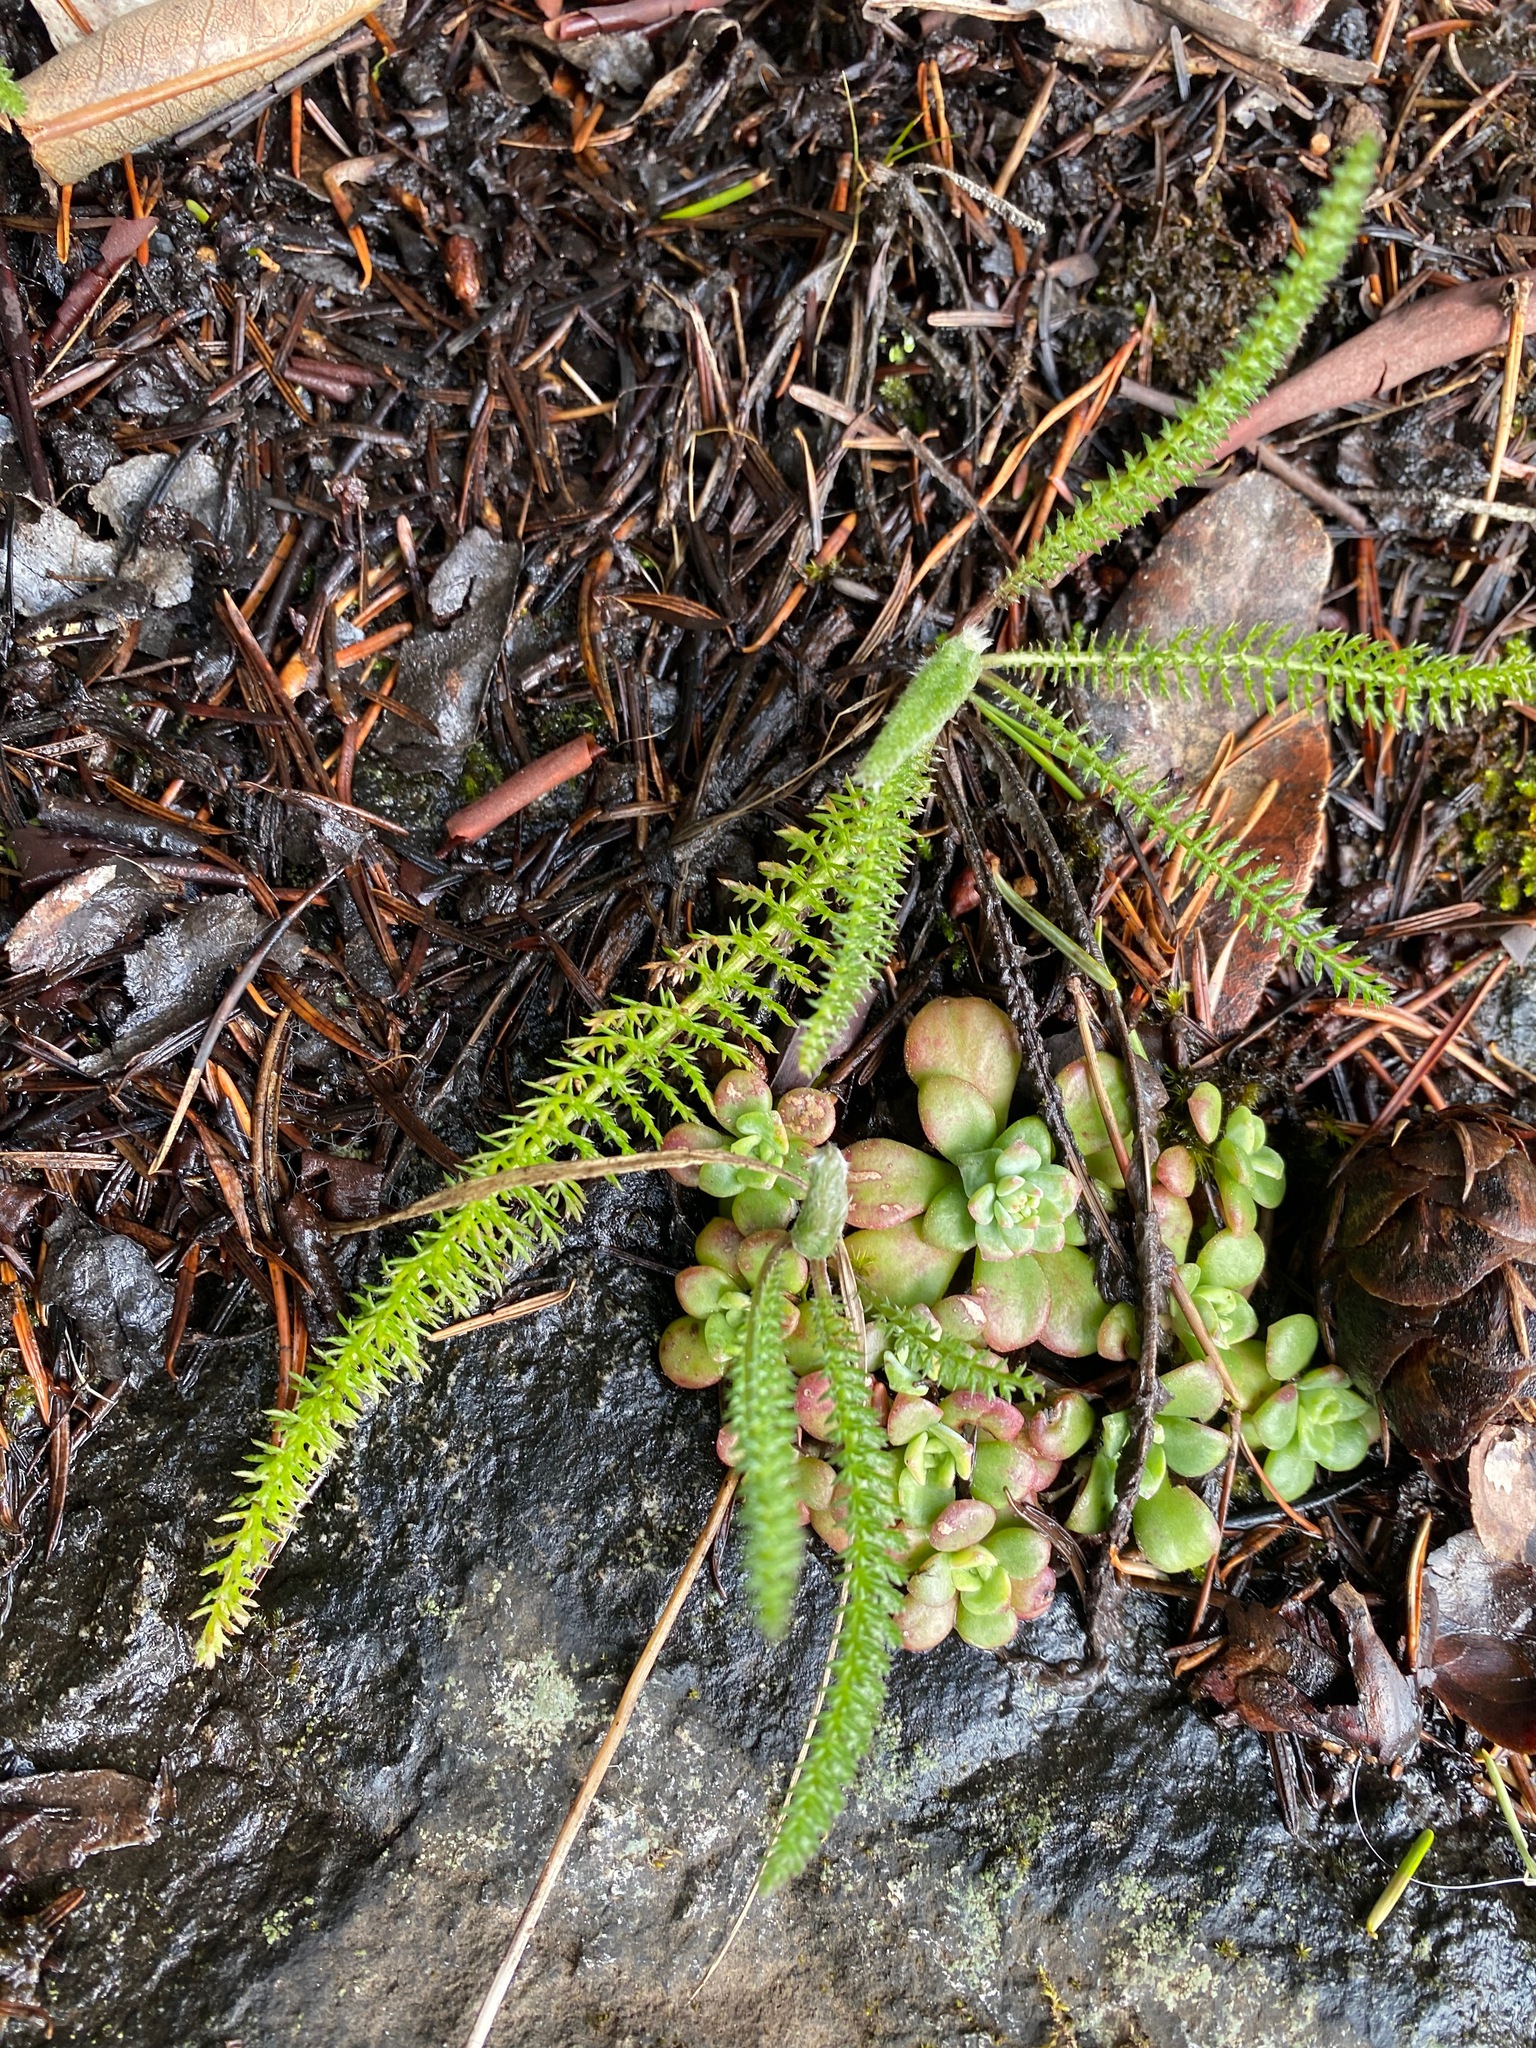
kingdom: Plantae
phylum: Tracheophyta
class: Magnoliopsida
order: Asterales
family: Asteraceae
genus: Achillea
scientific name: Achillea millefolium
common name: Yarrow
